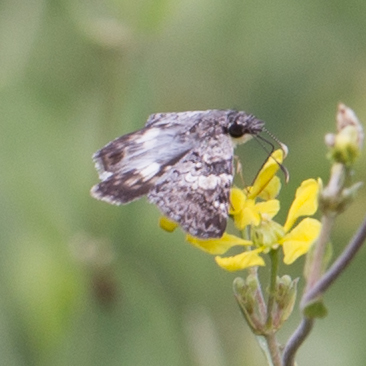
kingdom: Animalia
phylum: Arthropoda
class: Insecta
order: Lepidoptera
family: Hesperiidae
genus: Chiothion
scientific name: Chiothion georgina
